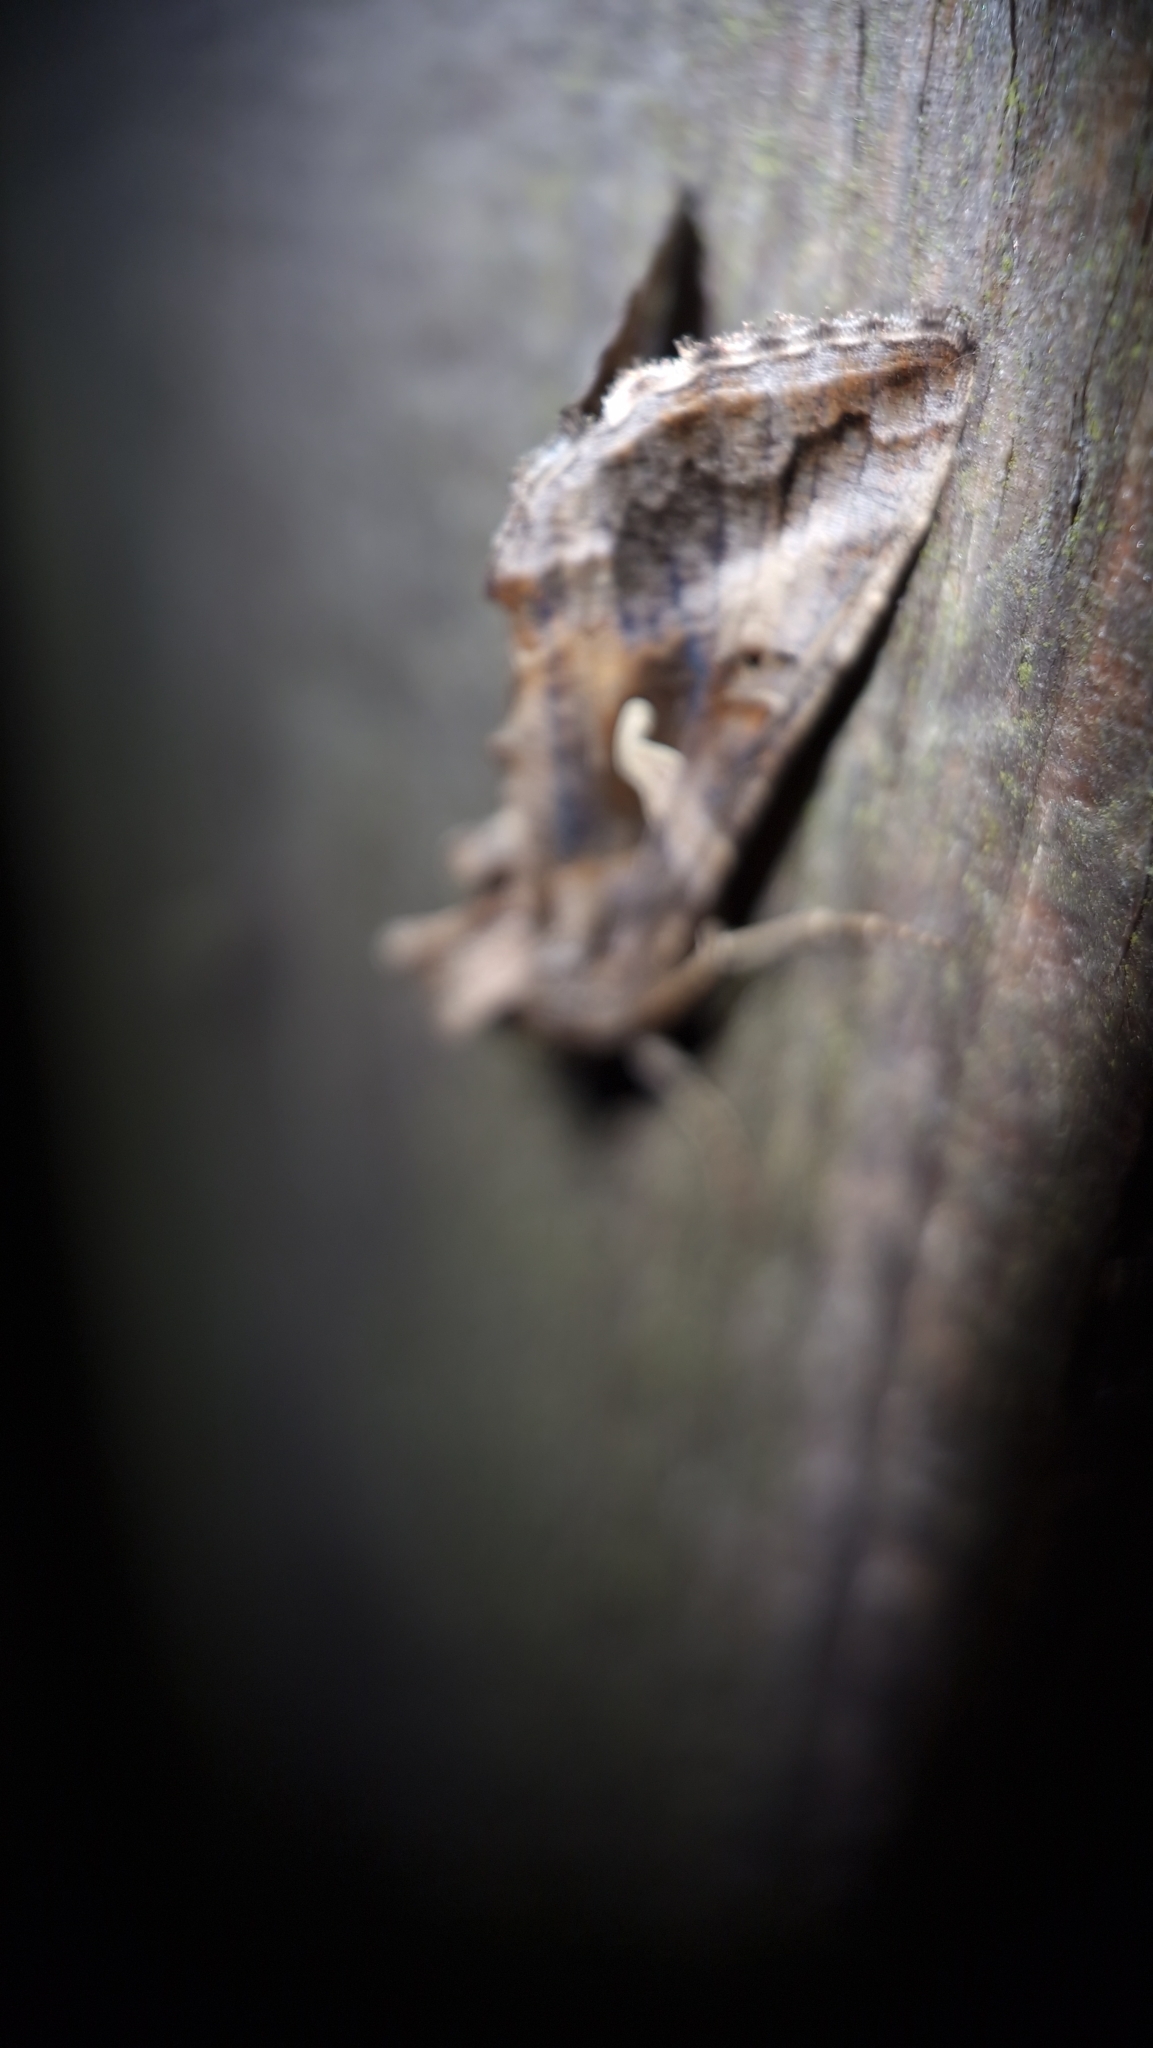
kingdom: Animalia
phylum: Arthropoda
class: Insecta
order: Lepidoptera
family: Noctuidae
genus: Autographa
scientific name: Autographa gamma
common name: Silver y
